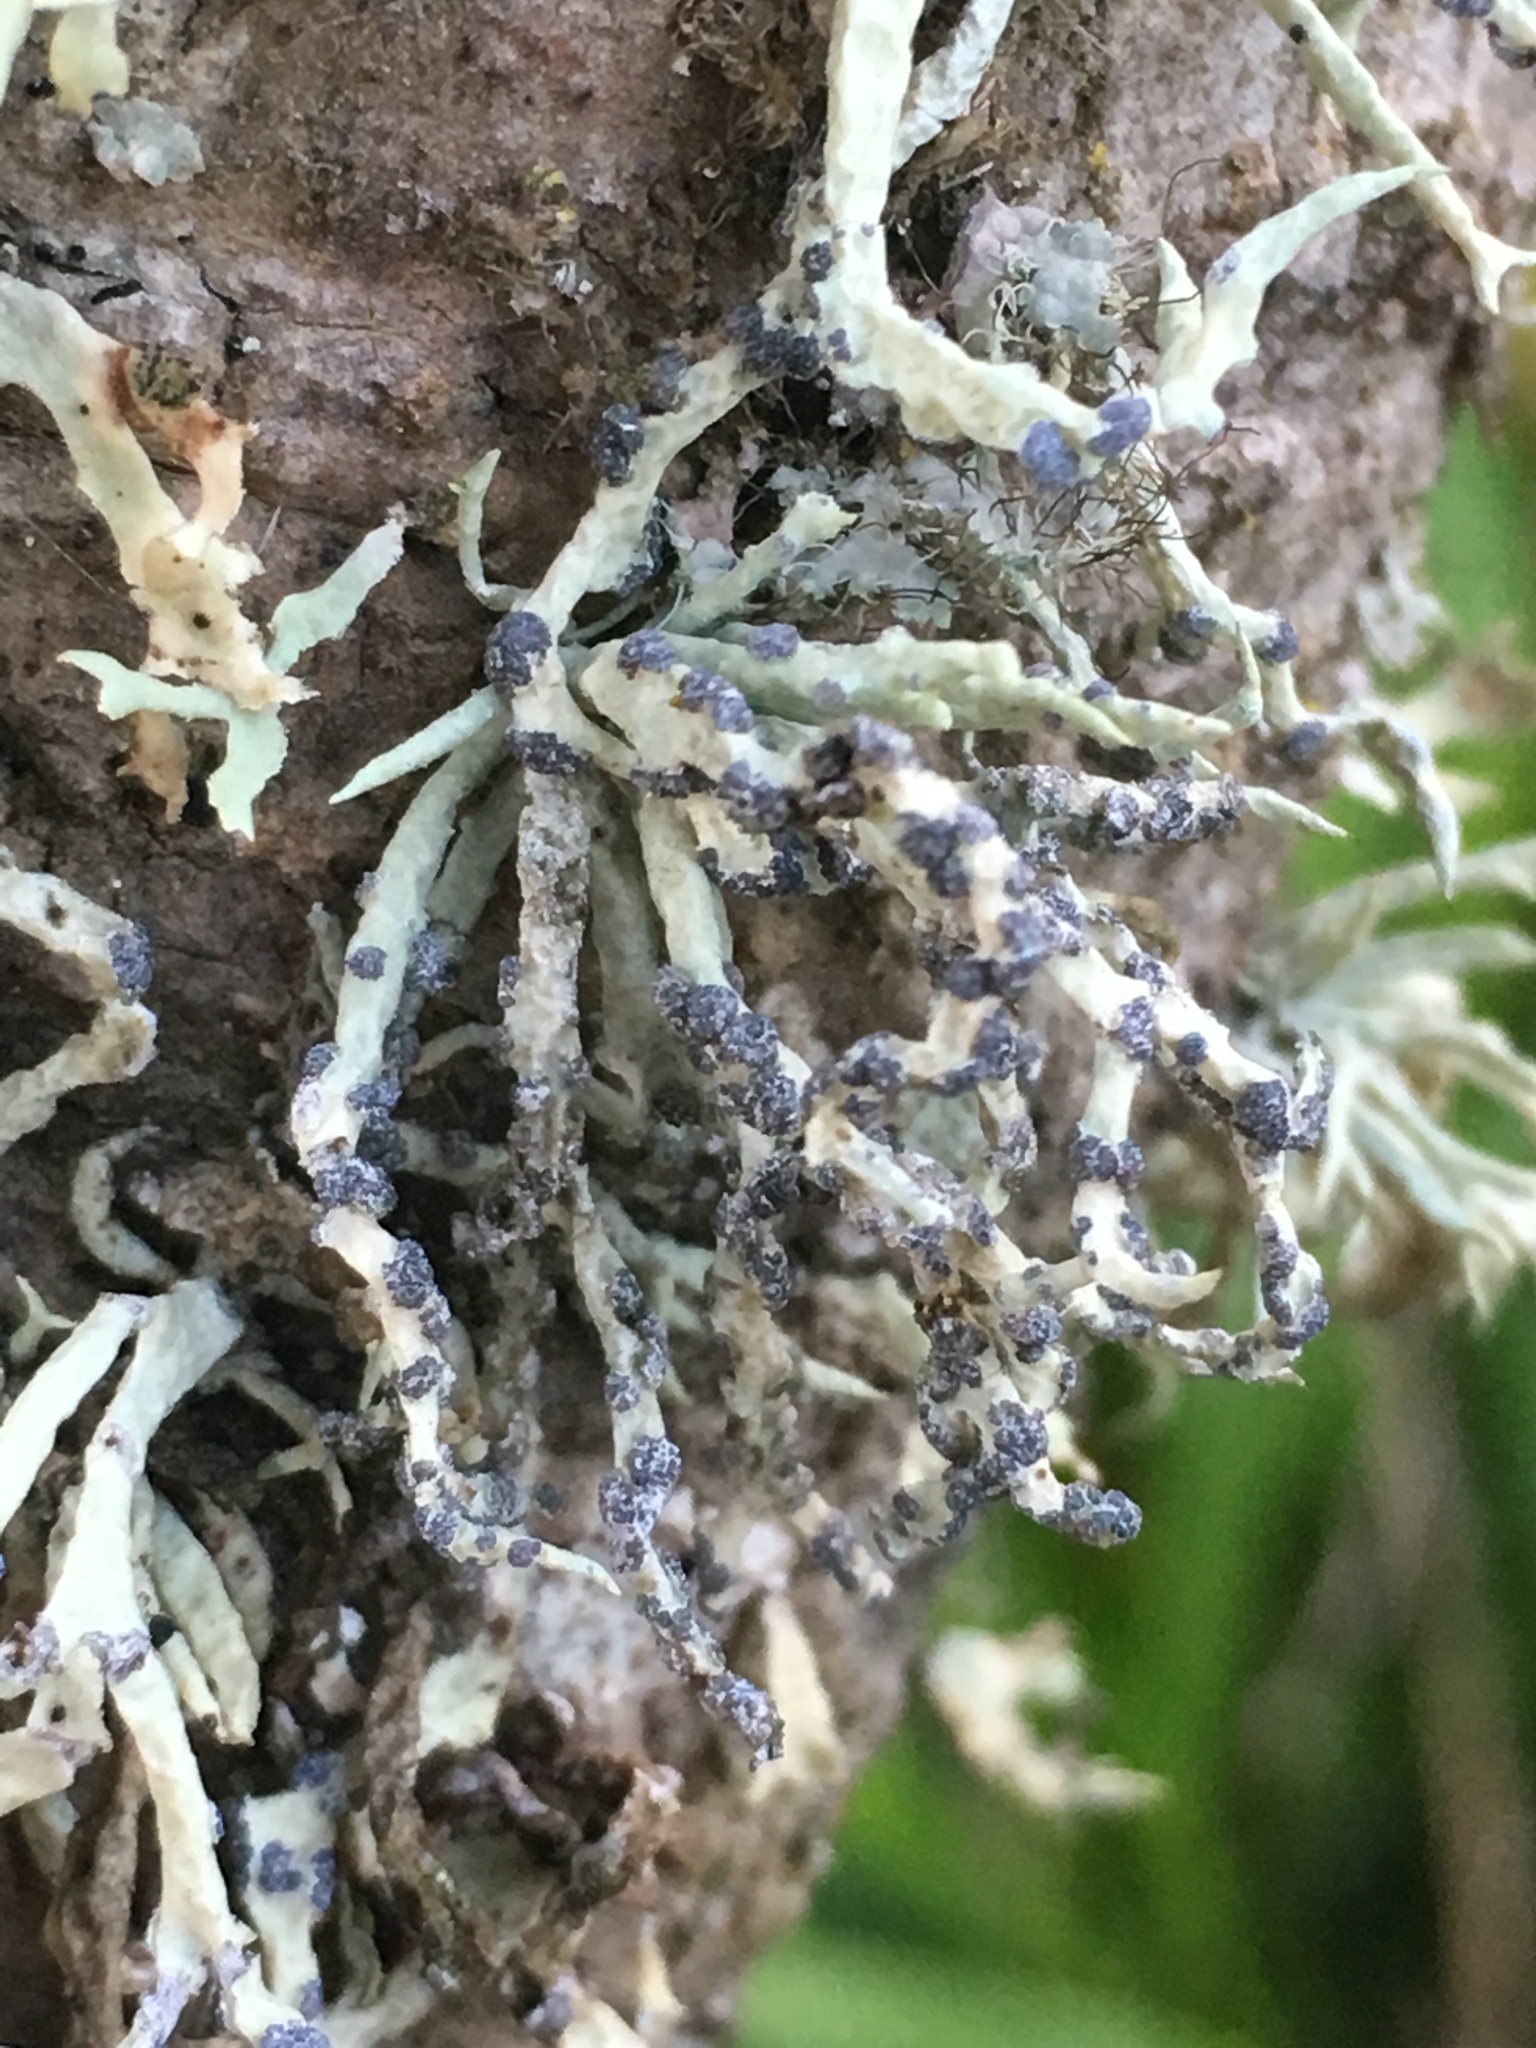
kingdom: Fungi
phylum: Ascomycota
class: Lecanoromycetes
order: Lecanorales
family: Ramalinaceae
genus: Niebla
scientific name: Niebla cephalota
